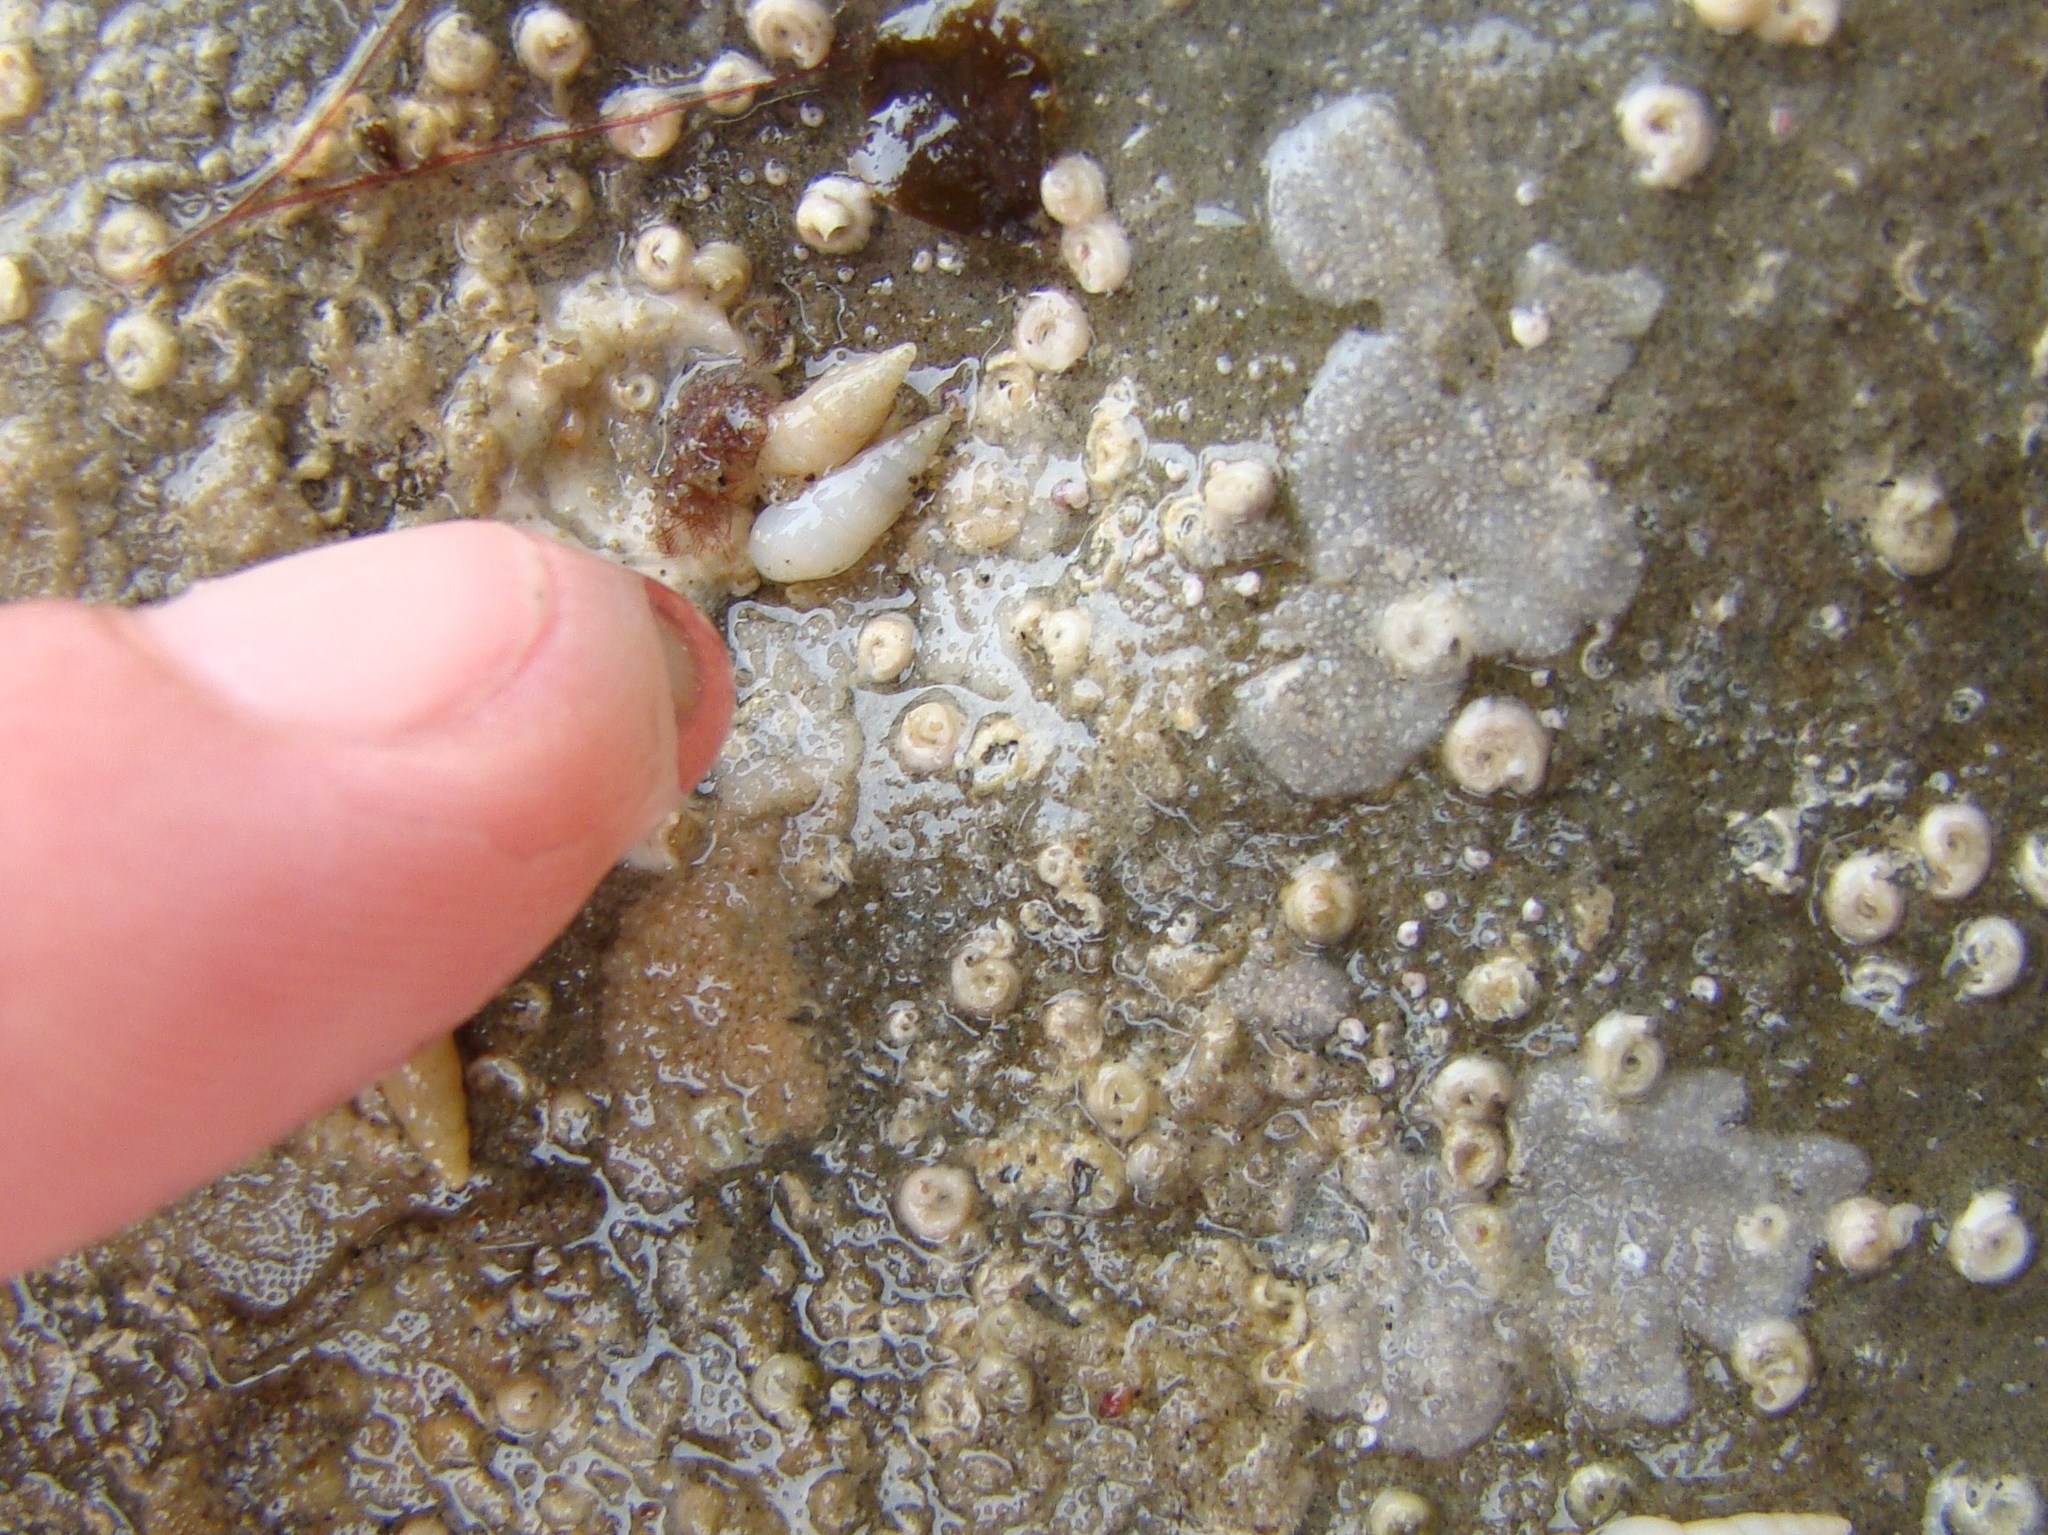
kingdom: Animalia
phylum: Mollusca
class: Gastropoda
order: Littorinimorpha
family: Rissoinidae
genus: Rissoina
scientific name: Rissoina
